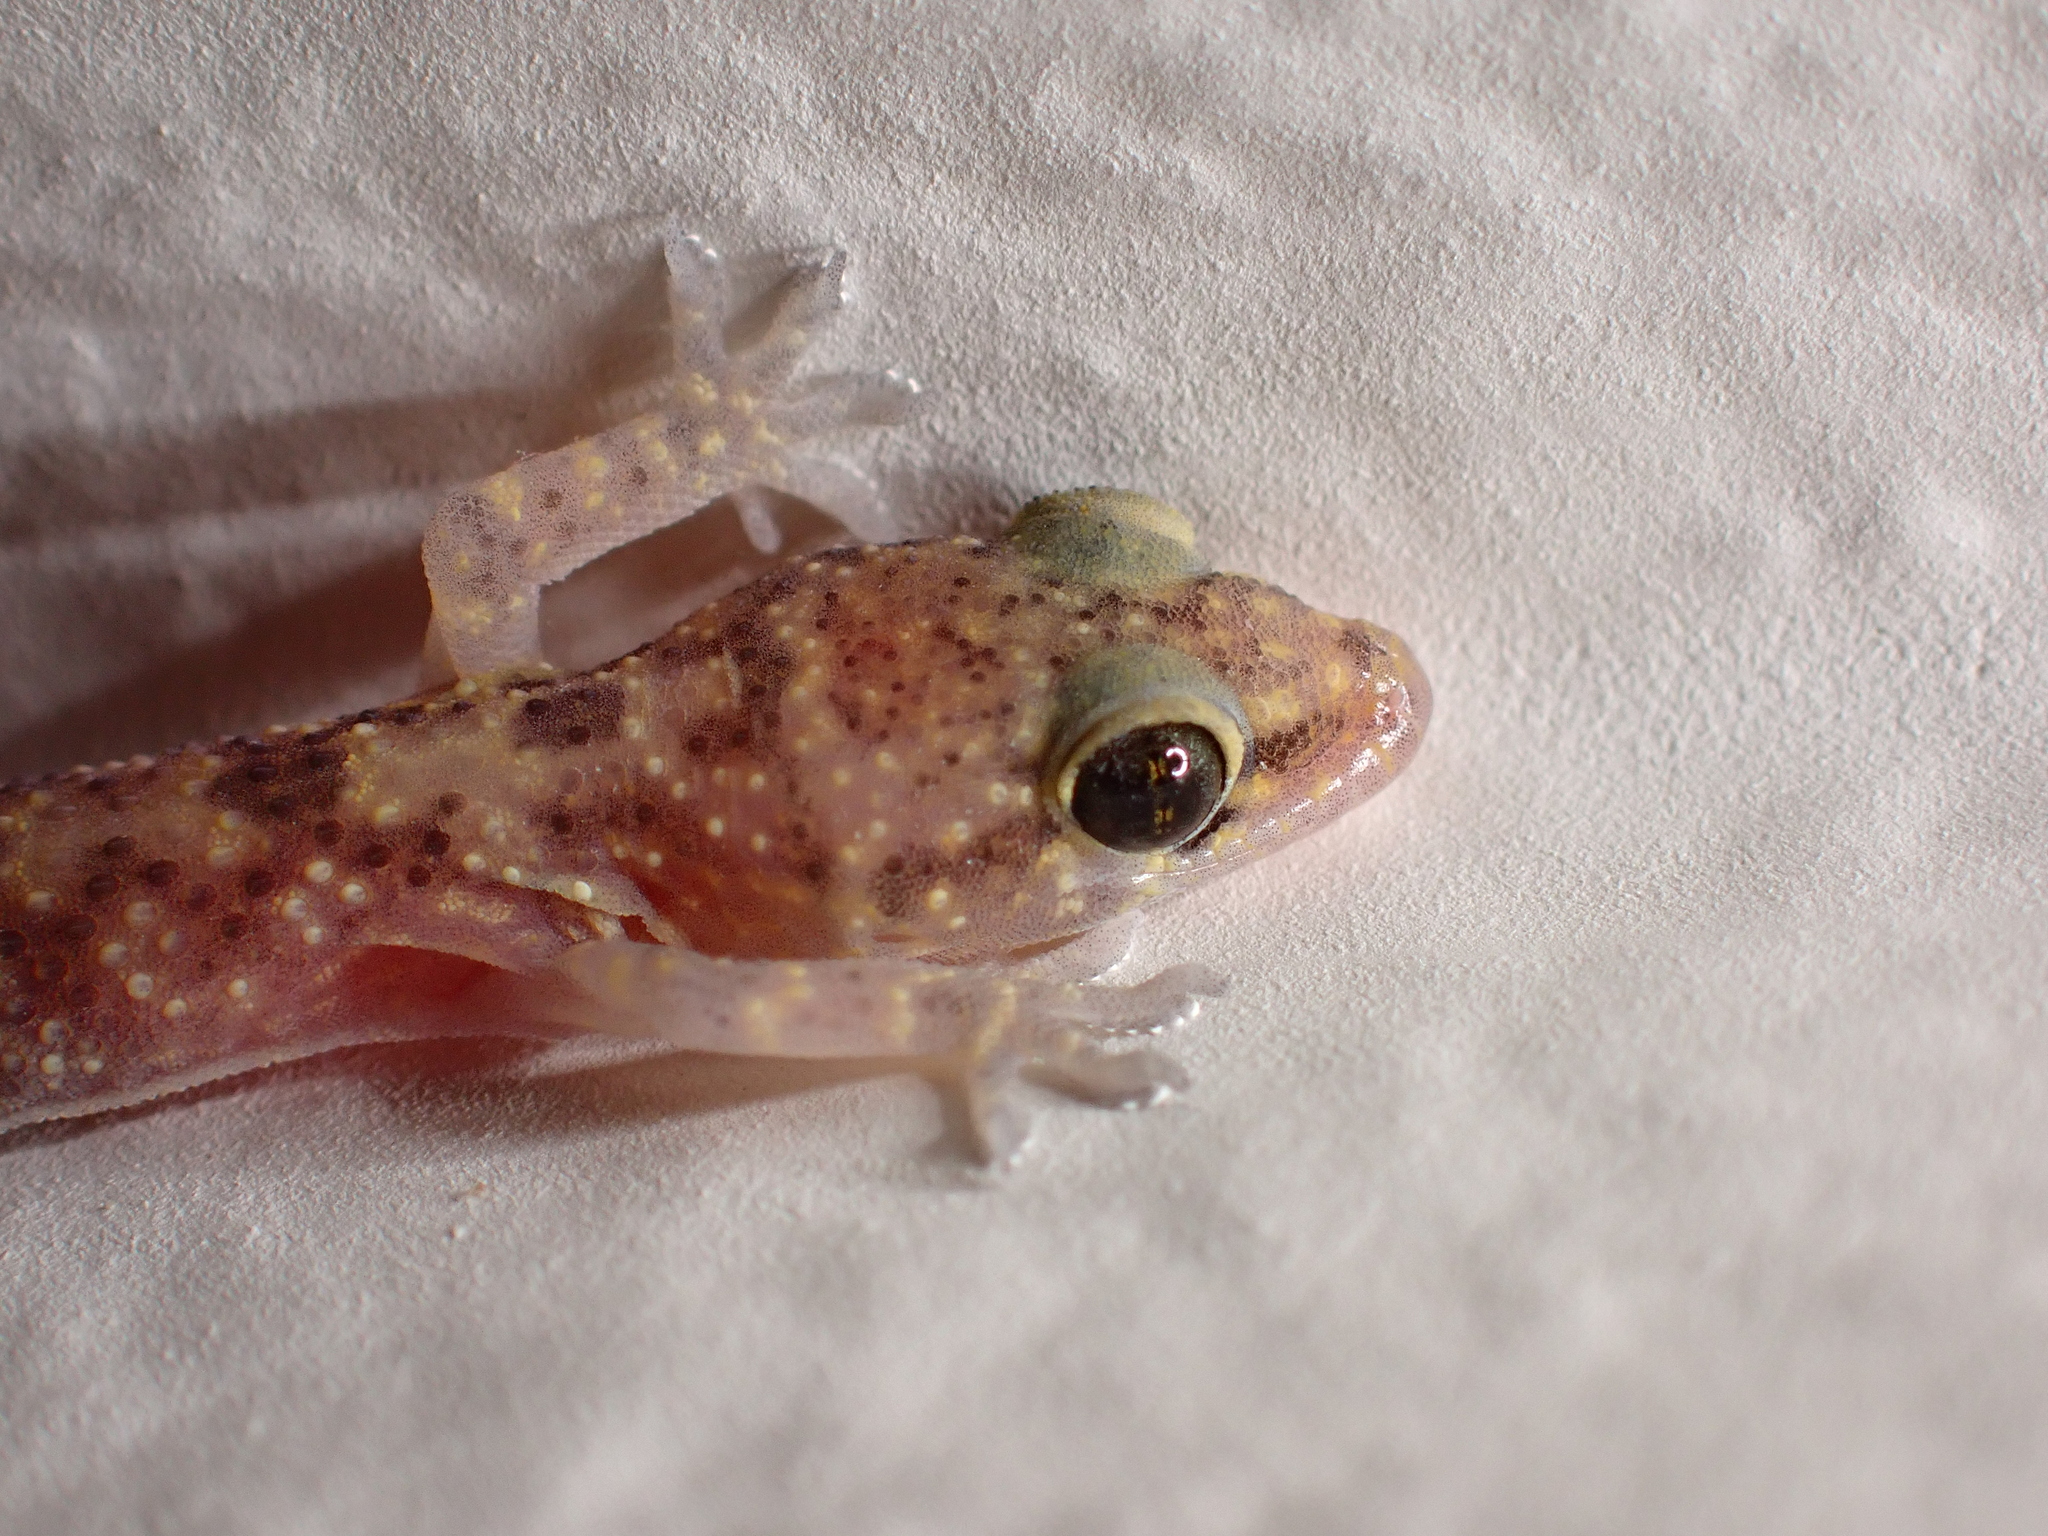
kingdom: Animalia
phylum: Chordata
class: Squamata
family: Gekkonidae
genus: Hemidactylus
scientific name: Hemidactylus turcicus
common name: Turkish gecko
